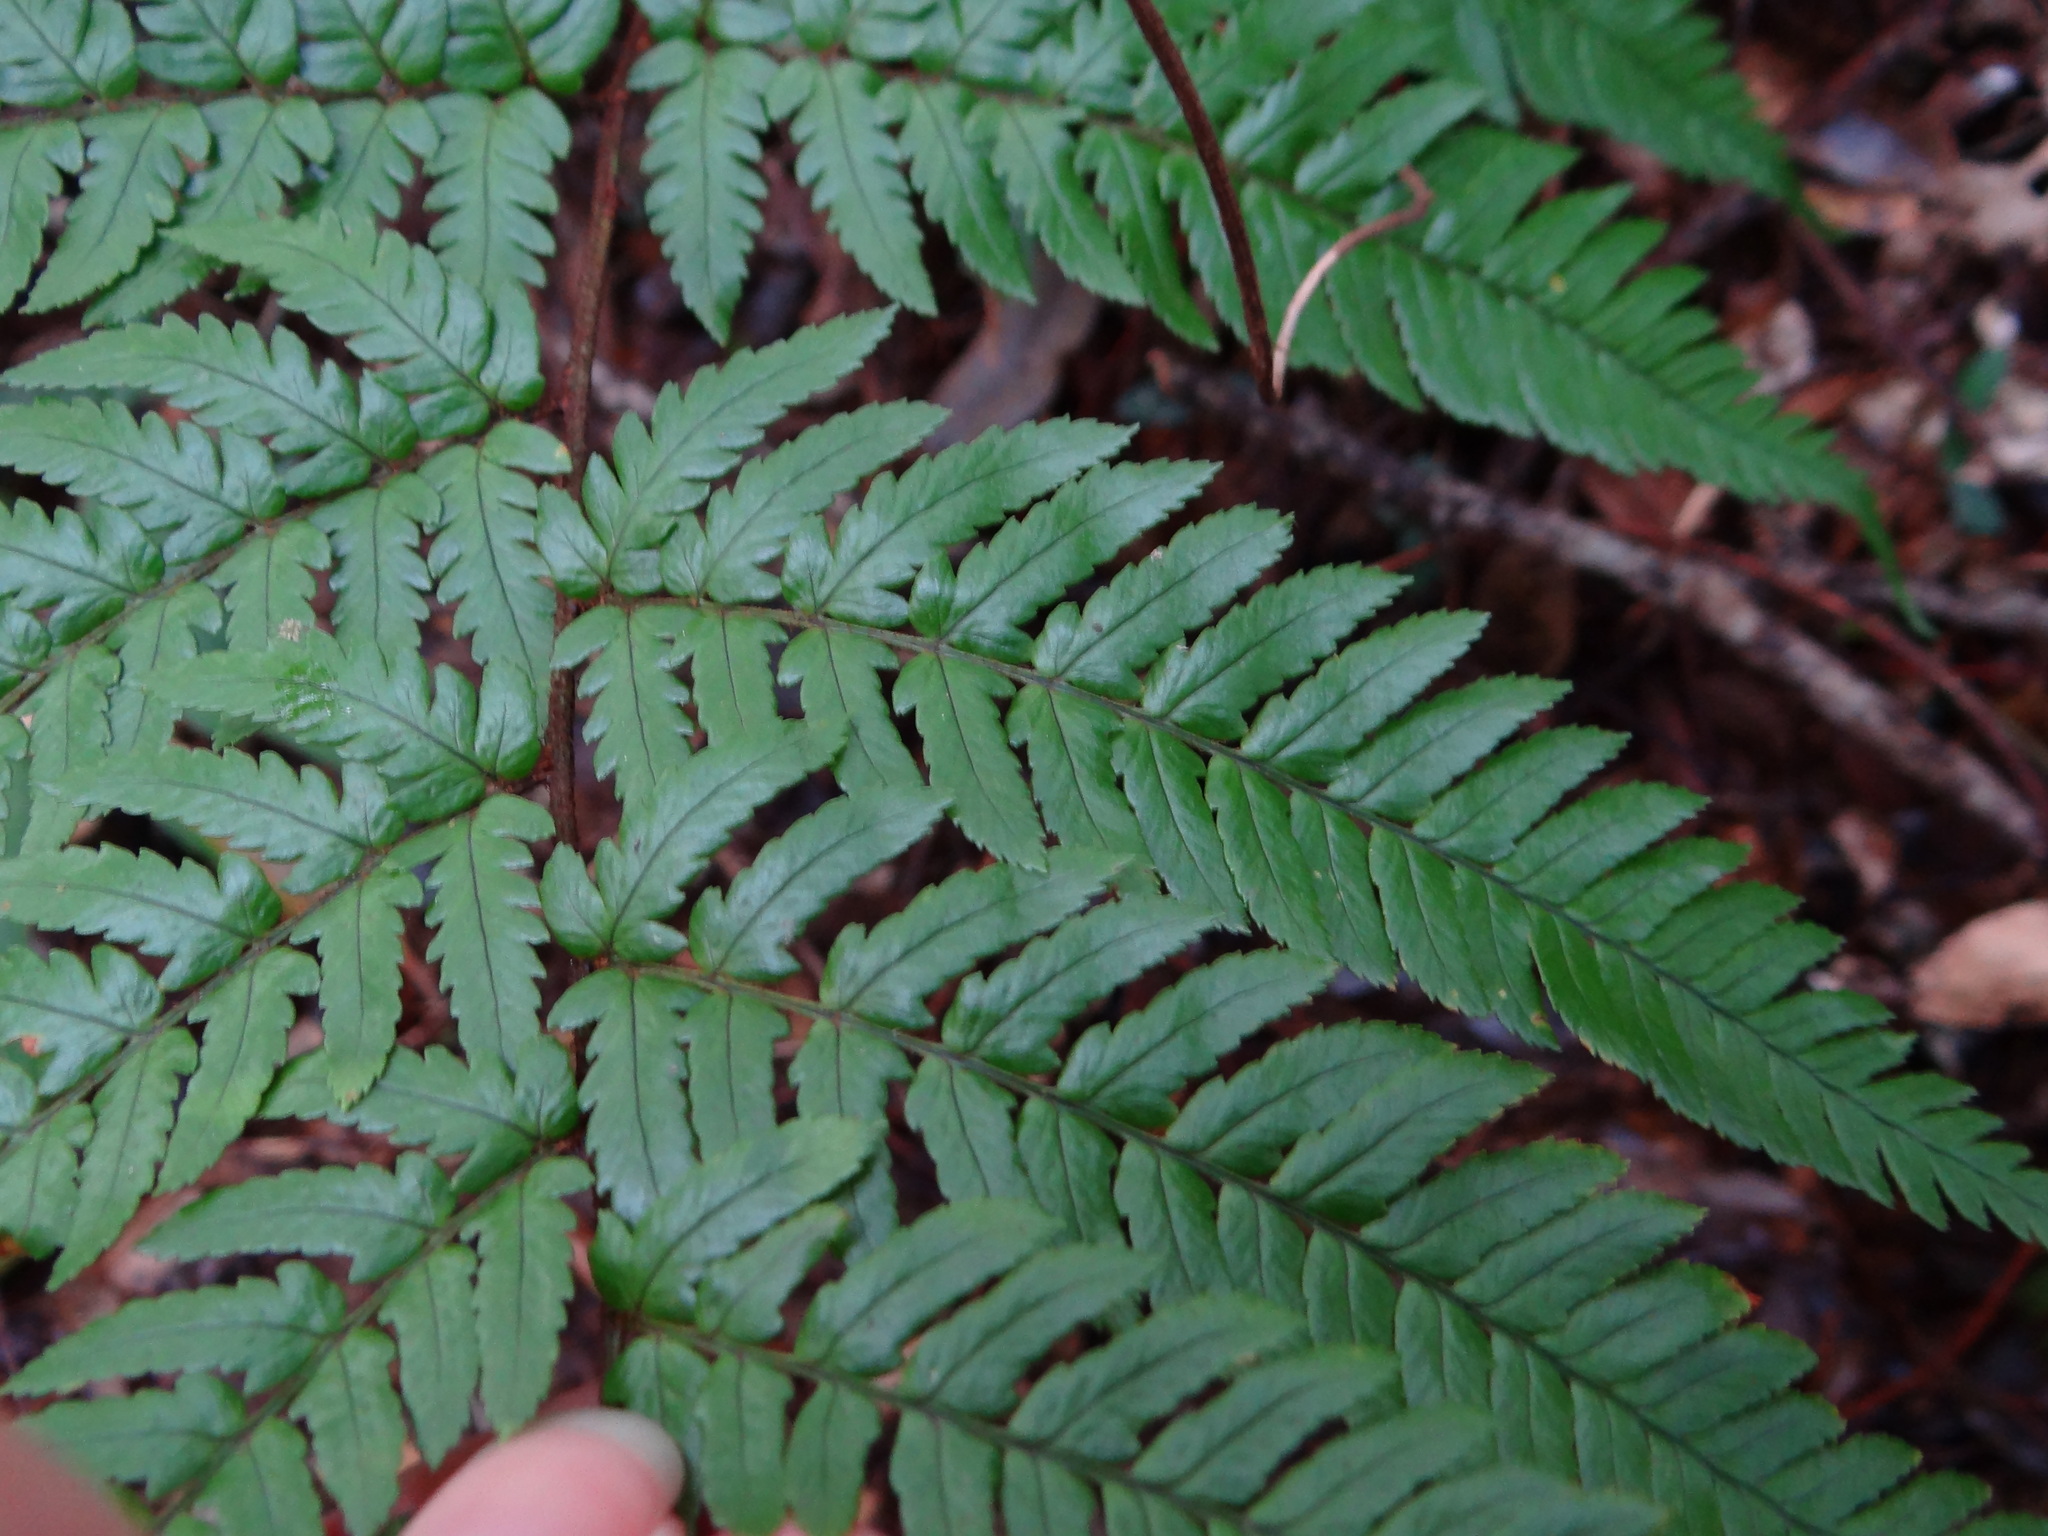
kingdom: Plantae
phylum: Tracheophyta
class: Polypodiopsida
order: Polypodiales
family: Dryopteridaceae
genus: Dryopteris
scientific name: Dryopteris sordidipes
